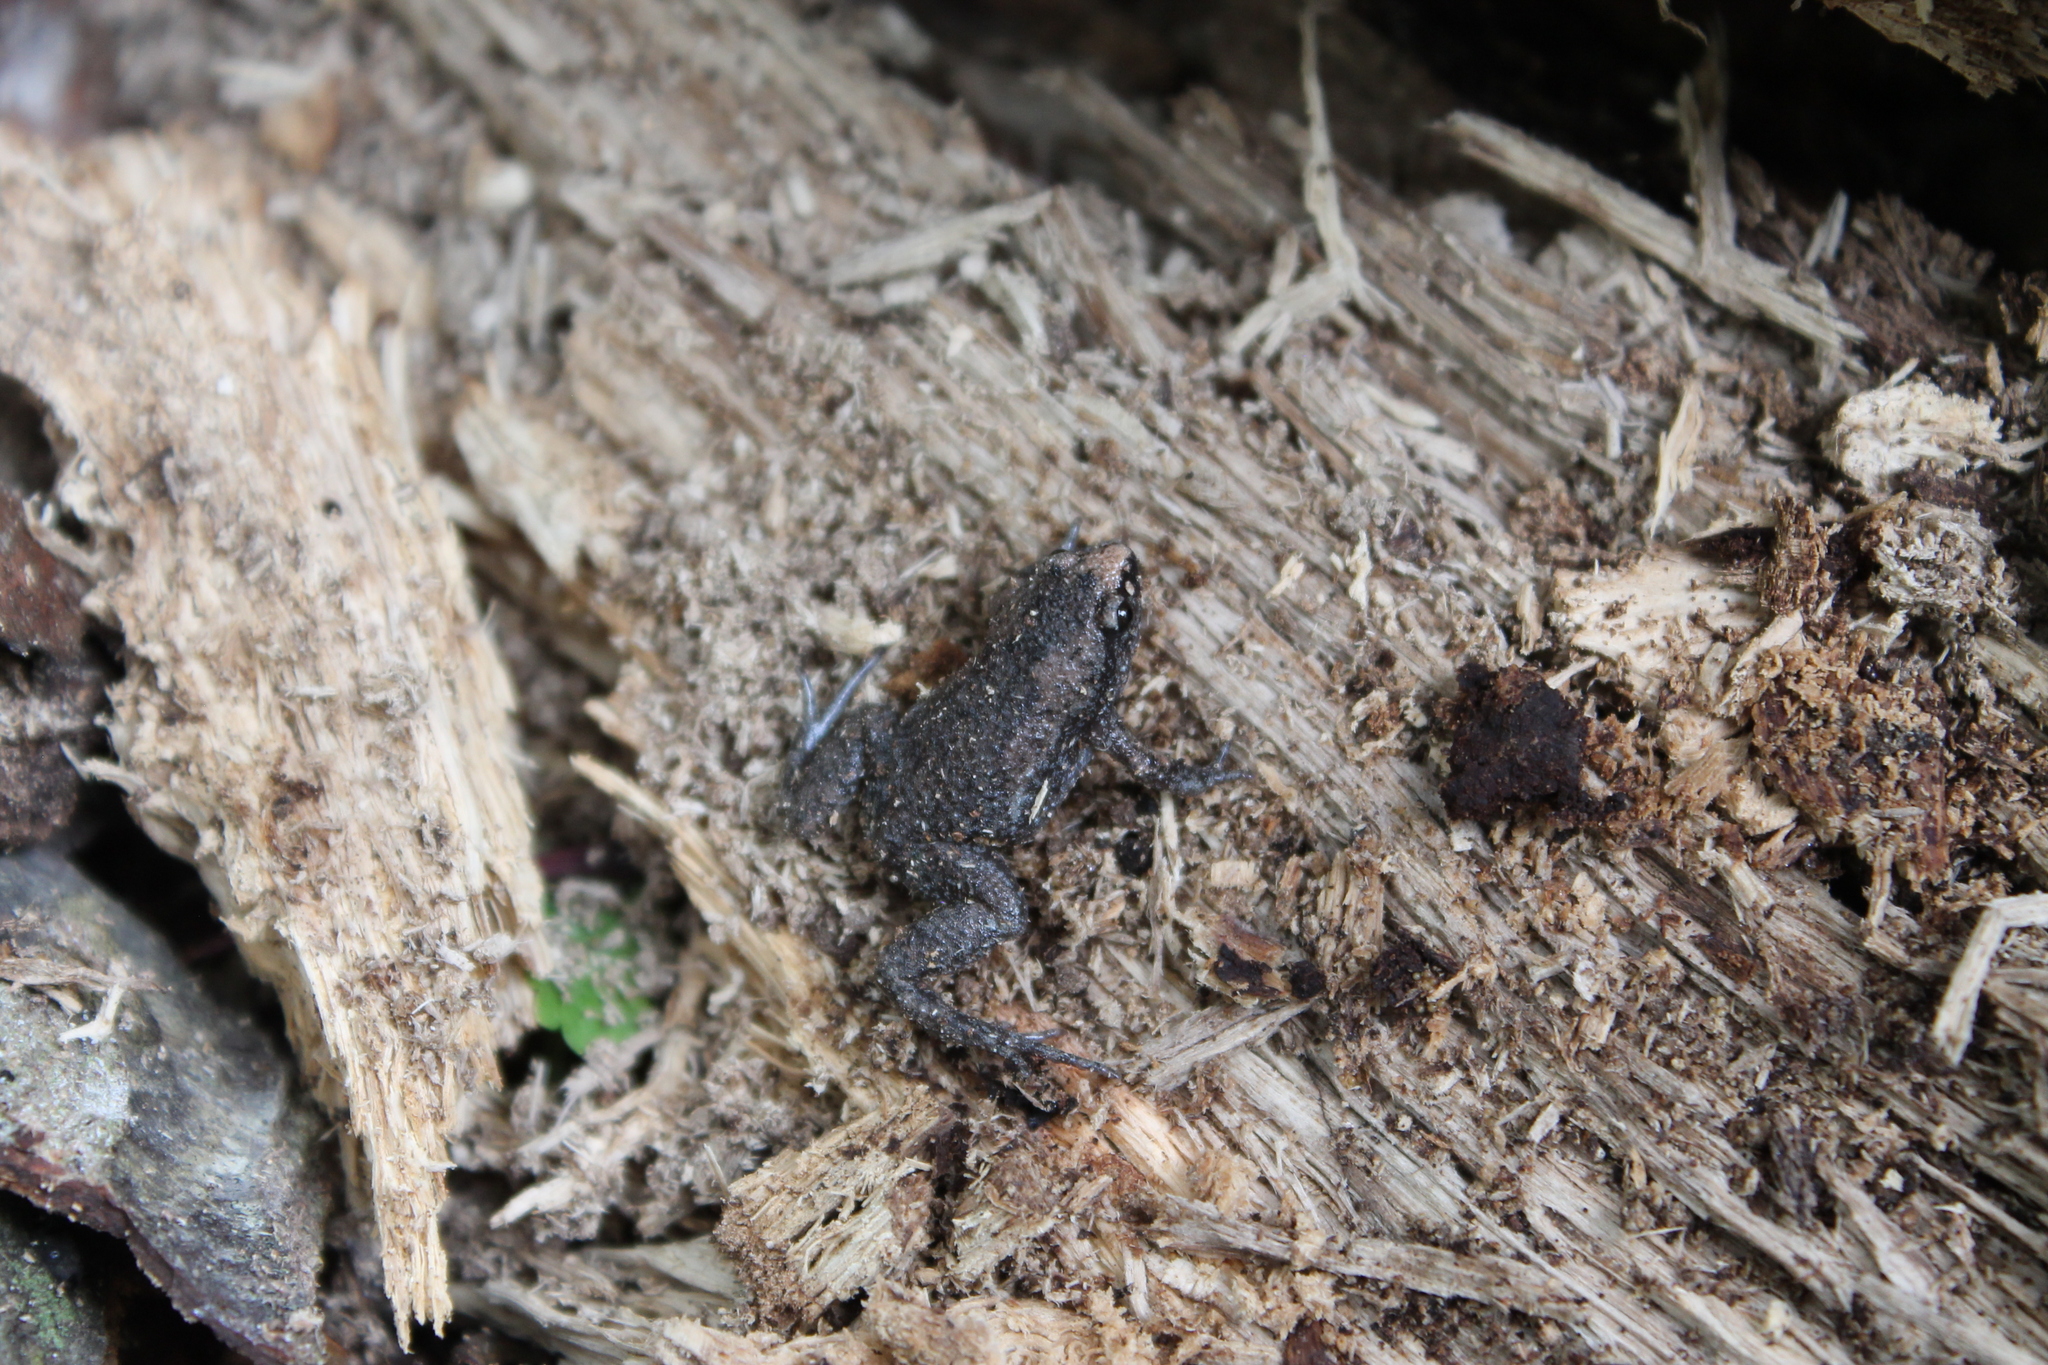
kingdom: Animalia
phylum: Chordata
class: Amphibia
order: Anura
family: Microhylidae
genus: Gastrophryne
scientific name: Gastrophryne carolinensis
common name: Eastern narrowmouth toad
